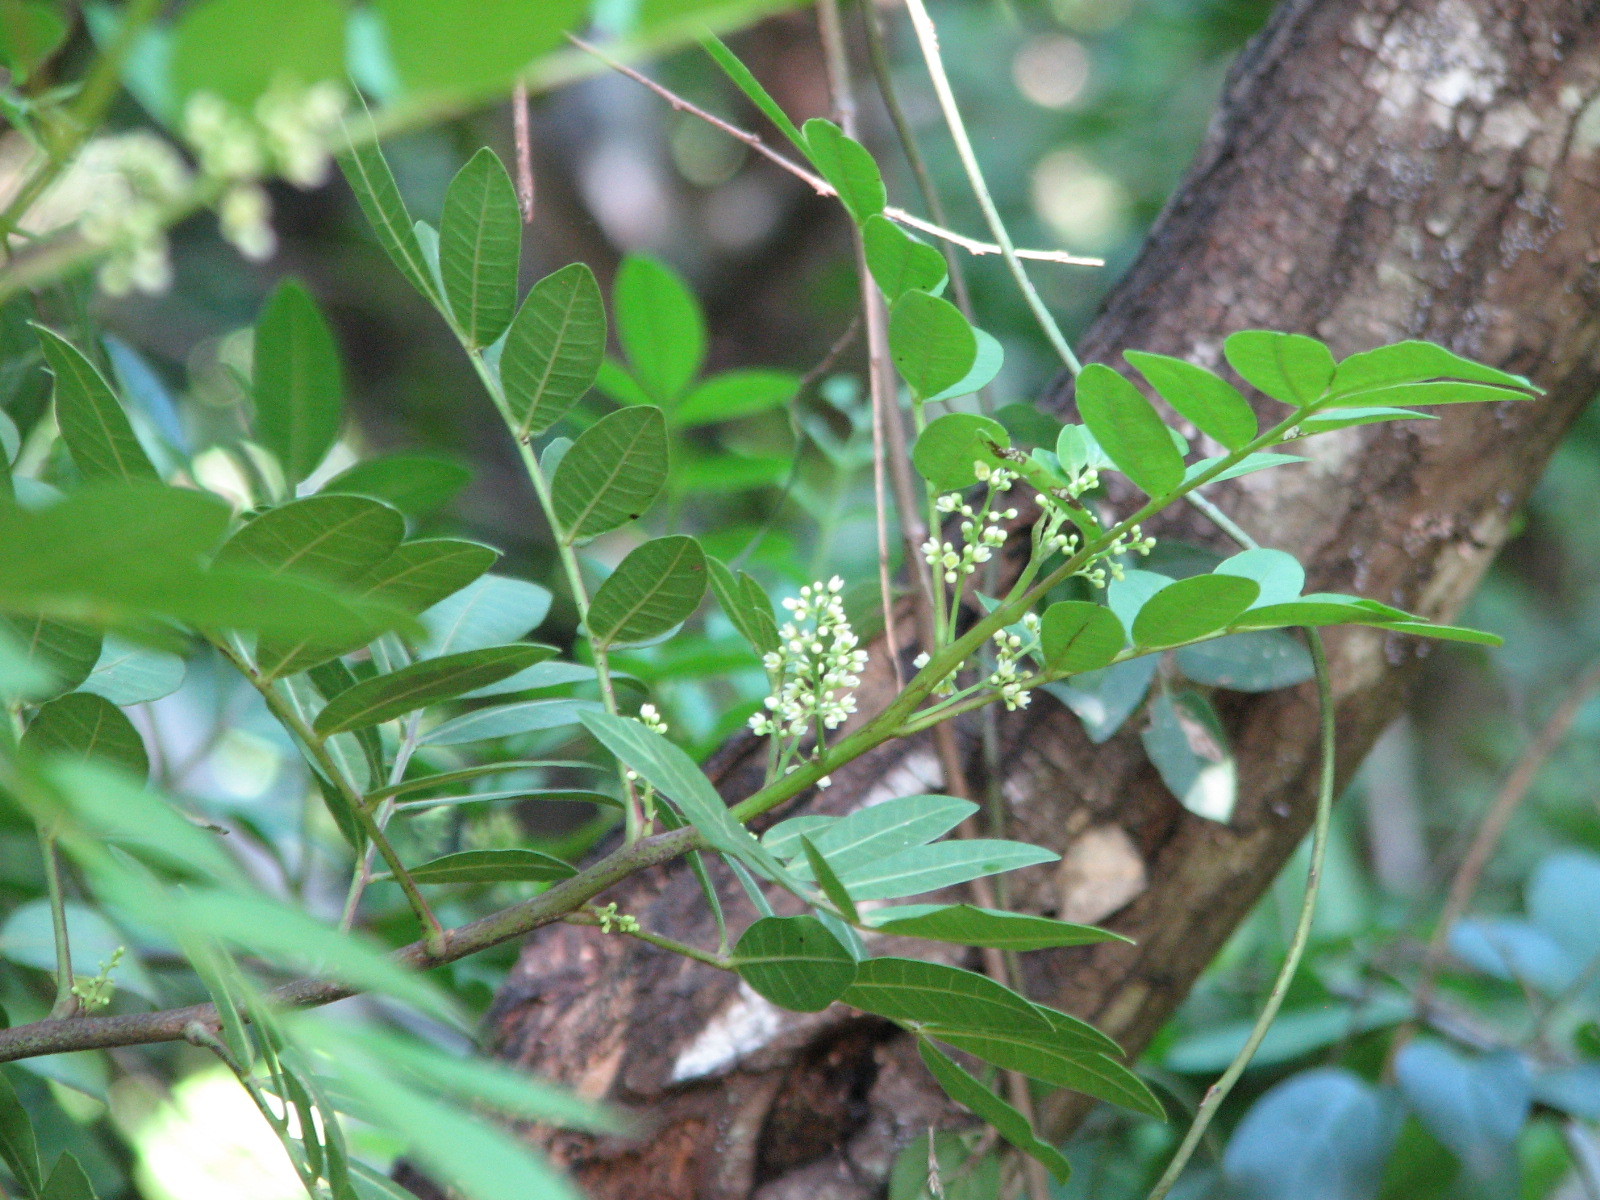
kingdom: Plantae
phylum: Tracheophyta
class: Magnoliopsida
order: Sapindales
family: Anacardiaceae
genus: Schinus
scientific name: Schinus terebinthifolia
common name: Brazilian peppertree
